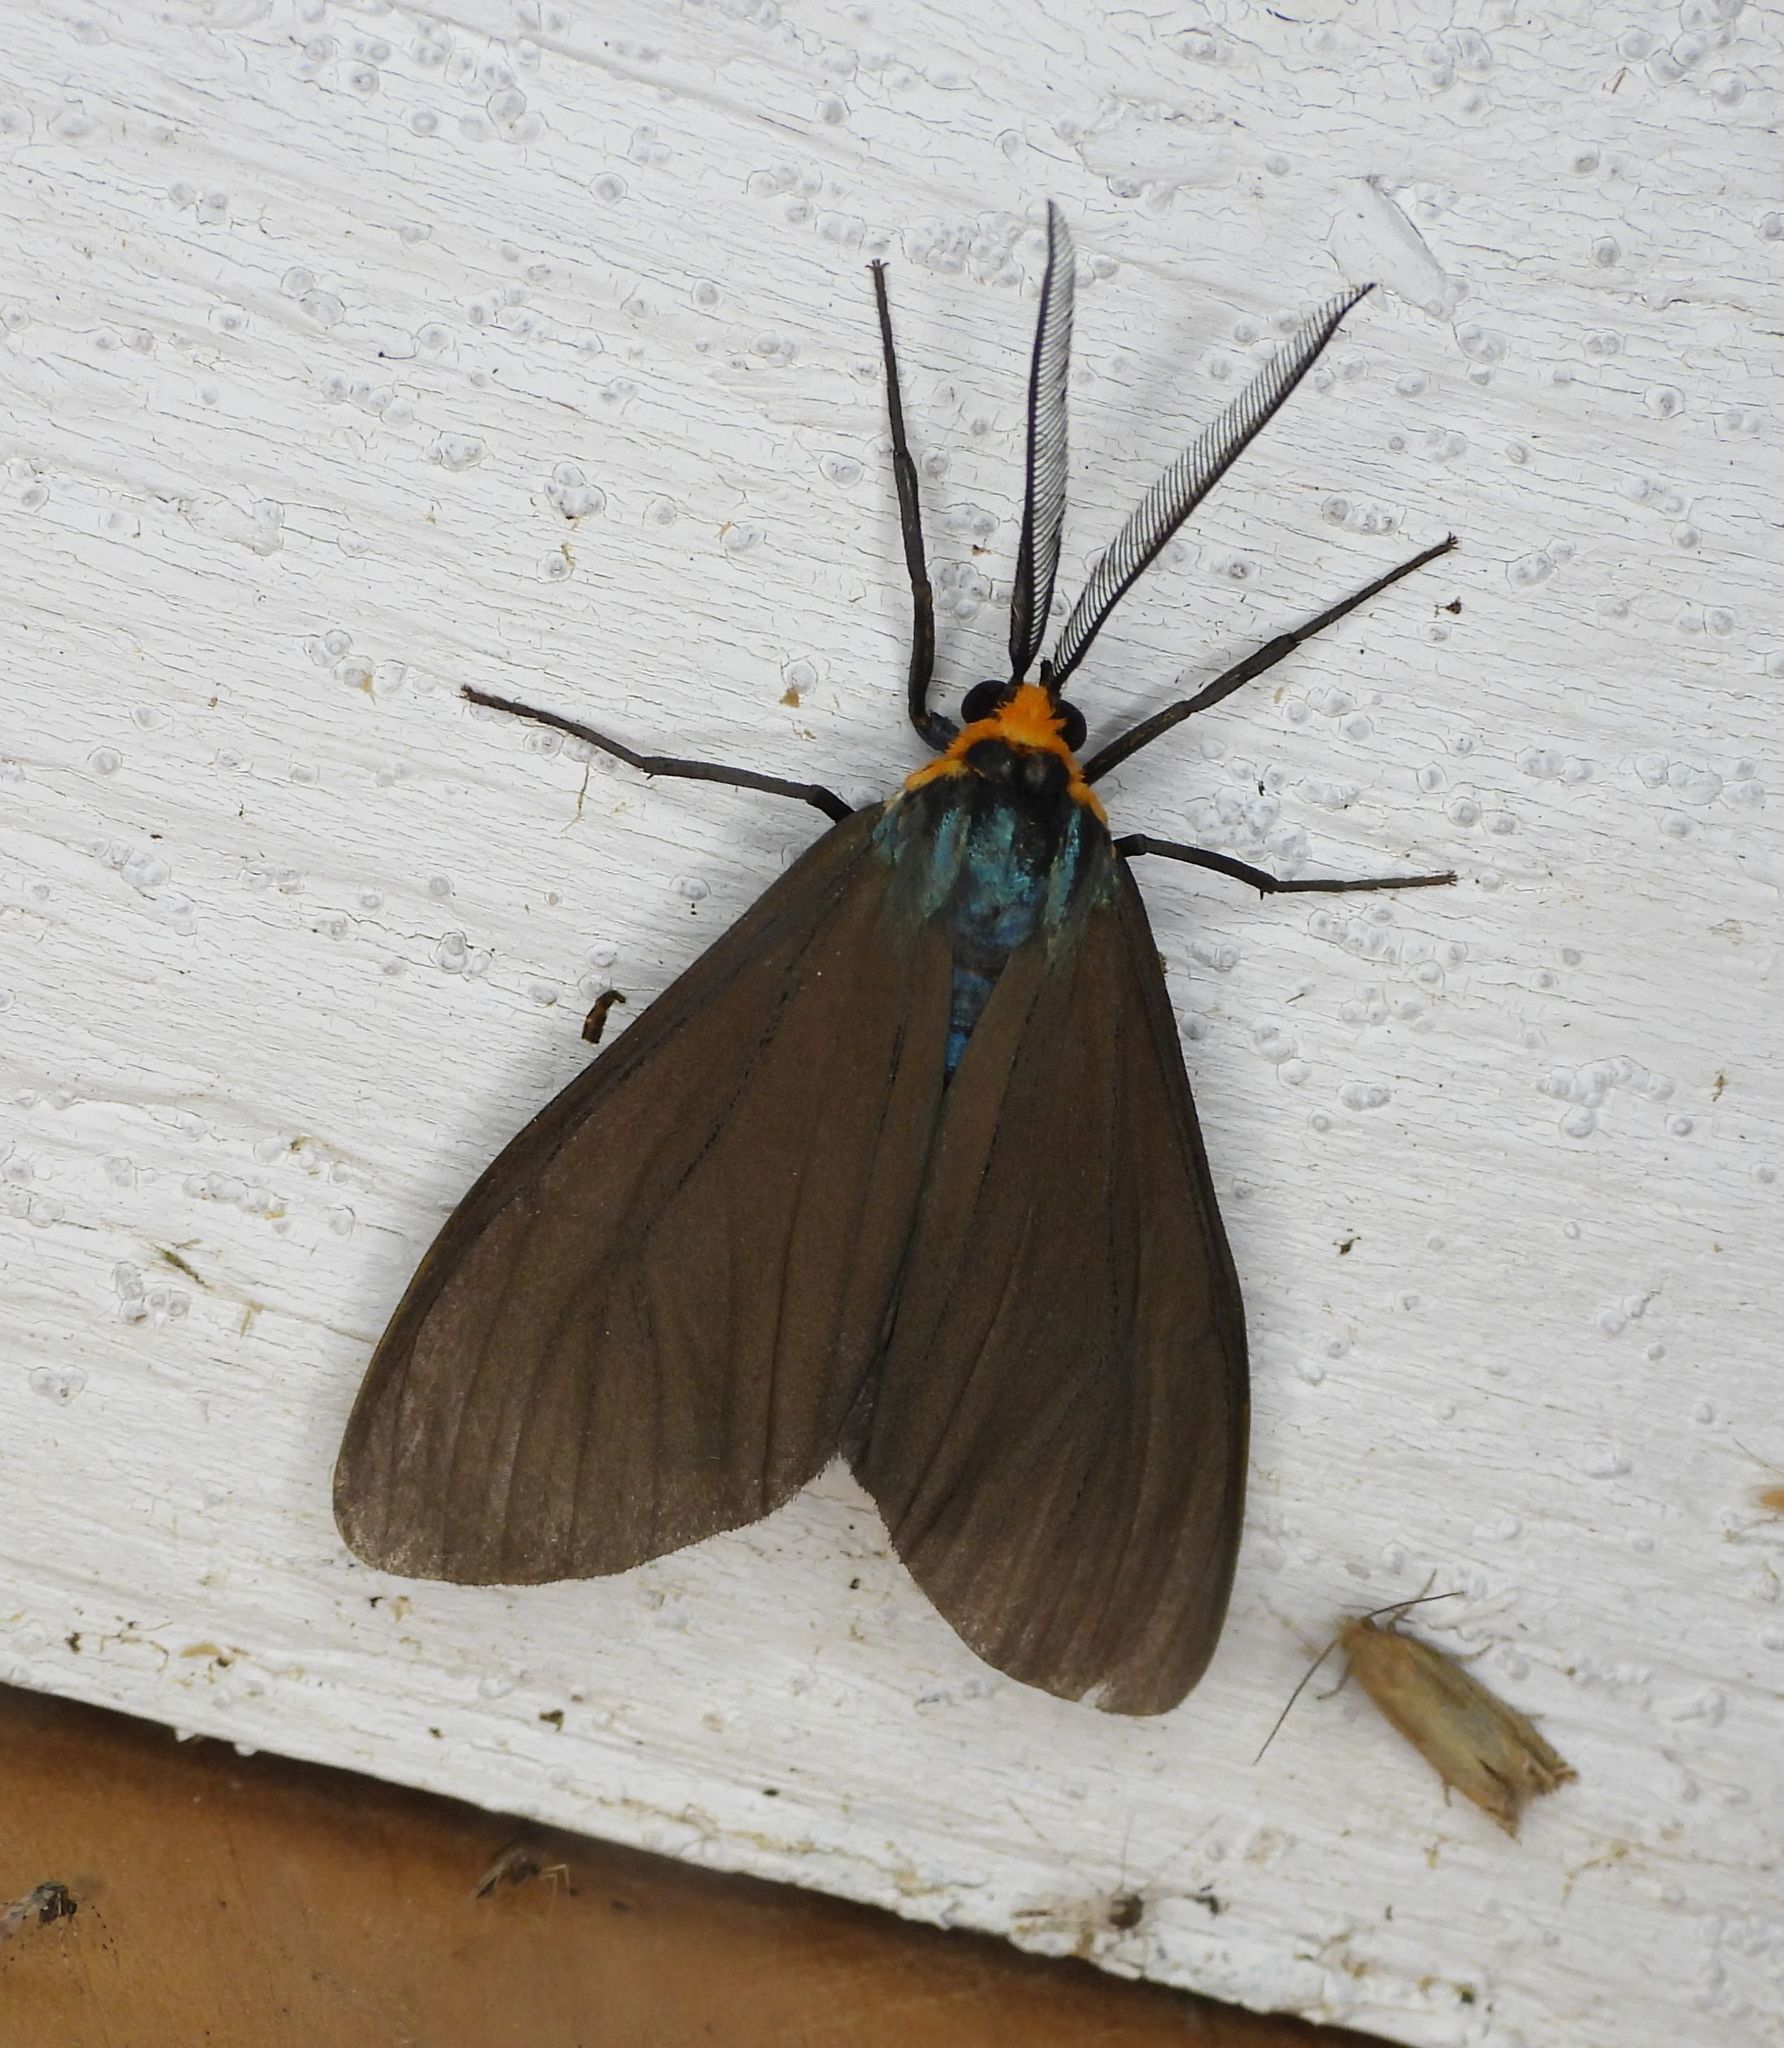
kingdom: Animalia
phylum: Arthropoda
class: Insecta
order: Lepidoptera
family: Erebidae
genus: Ctenucha
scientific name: Ctenucha virginica
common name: Virginia ctenucha moth
